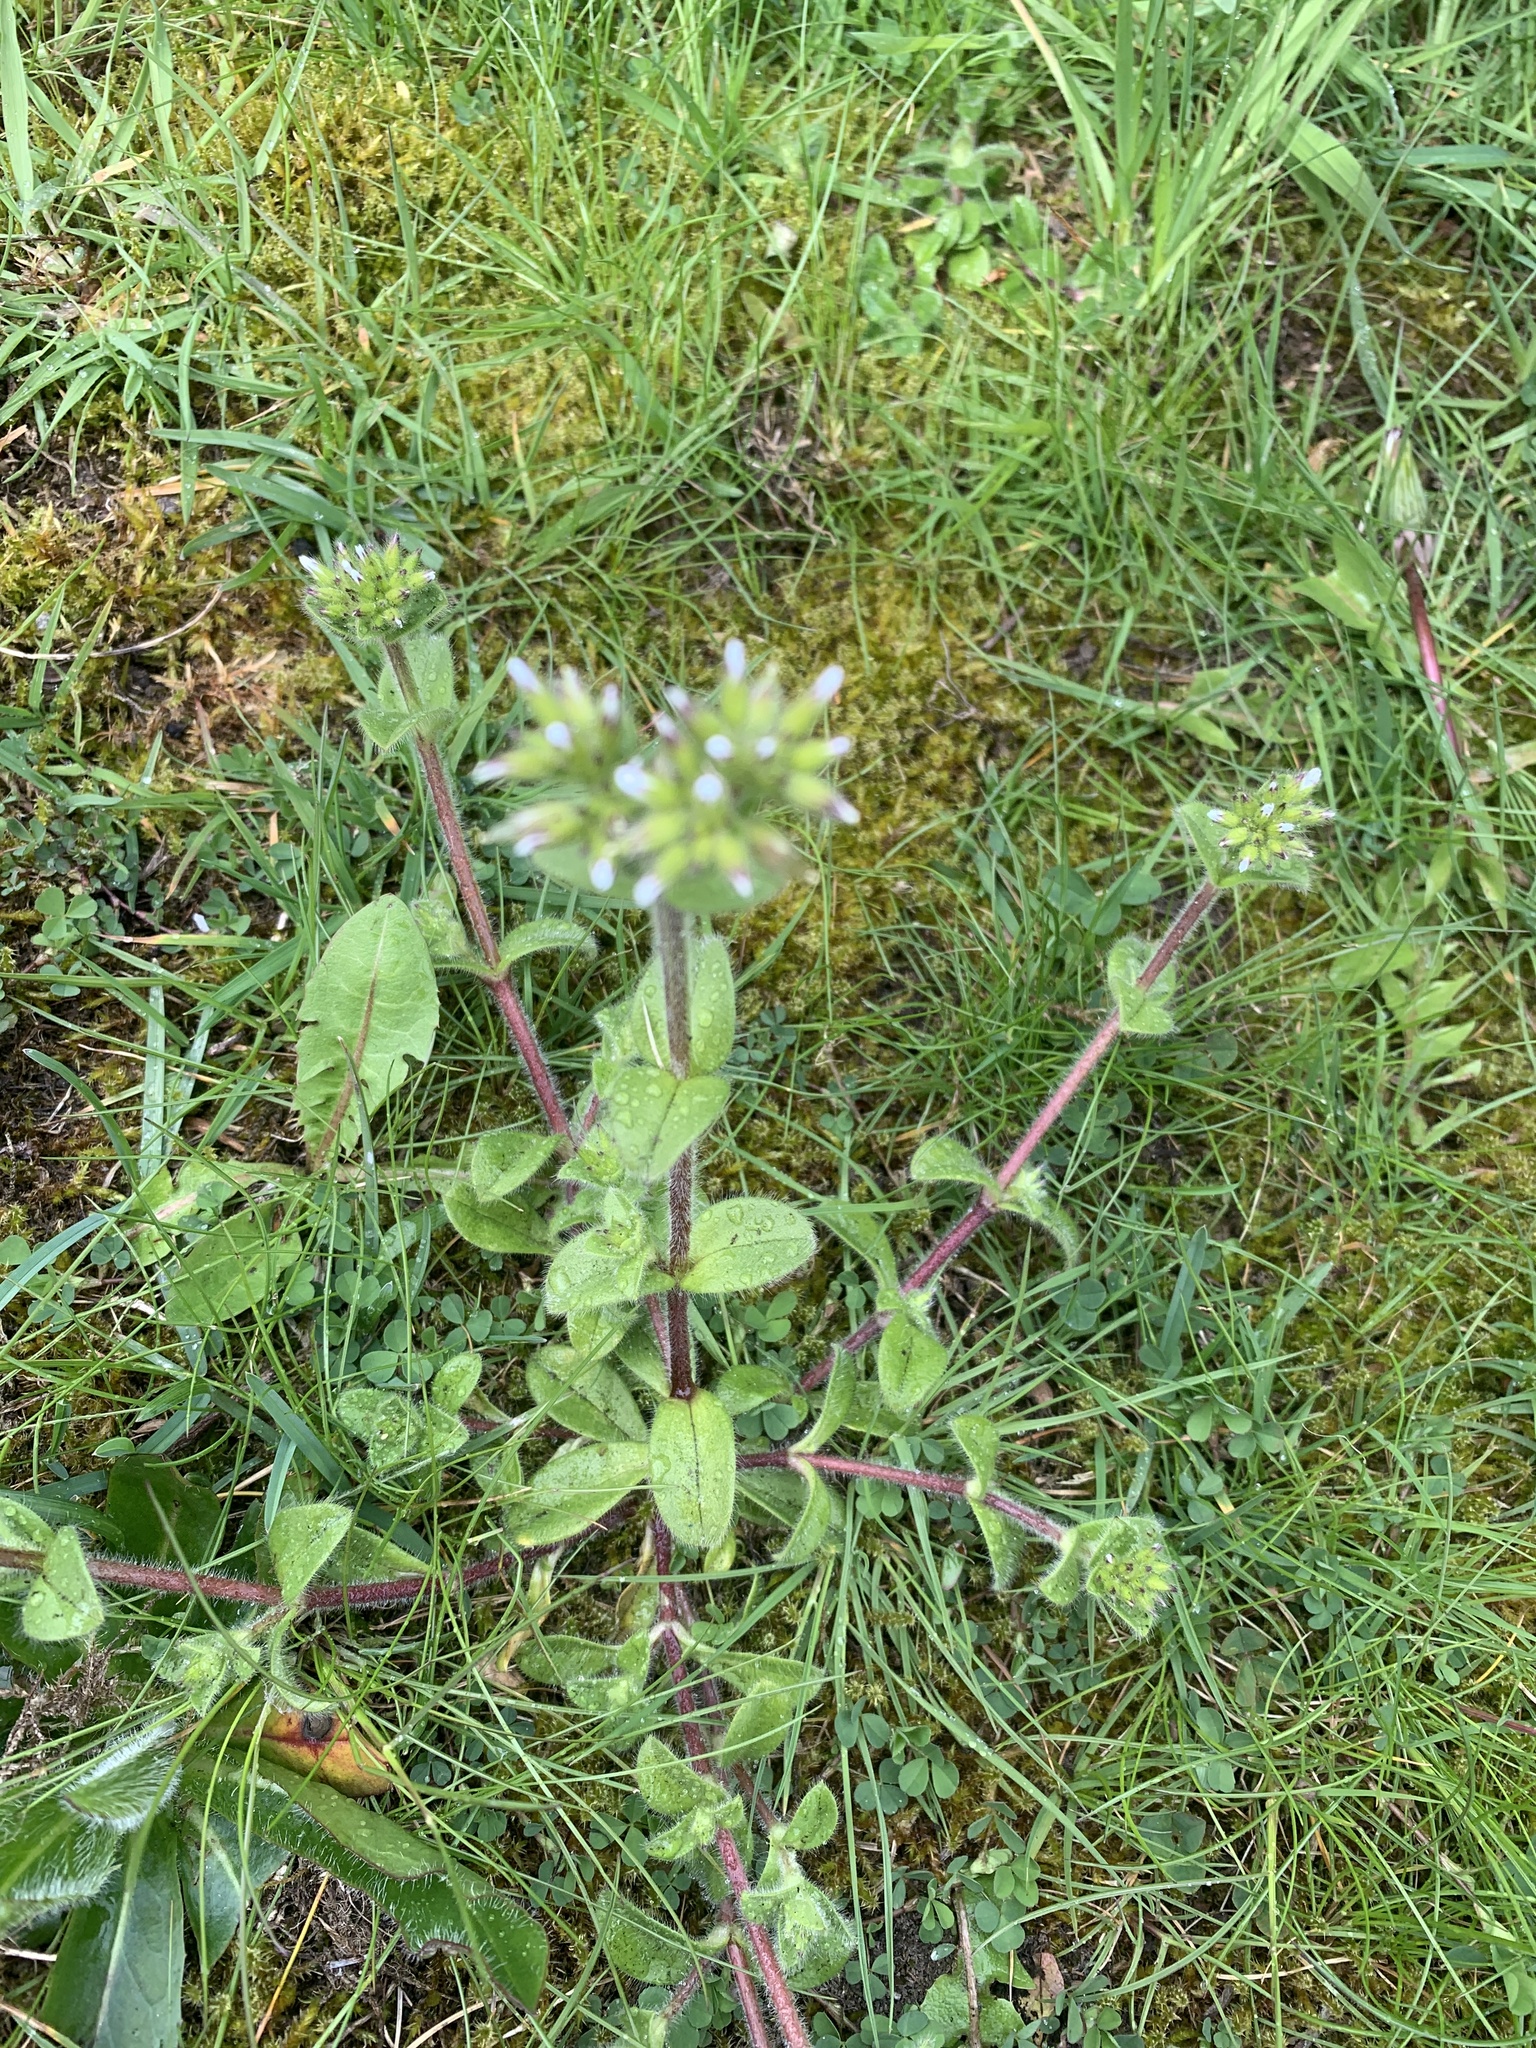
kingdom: Plantae
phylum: Tracheophyta
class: Magnoliopsida
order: Caryophyllales
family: Caryophyllaceae
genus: Cerastium
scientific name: Cerastium glomeratum
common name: Sticky chickweed
